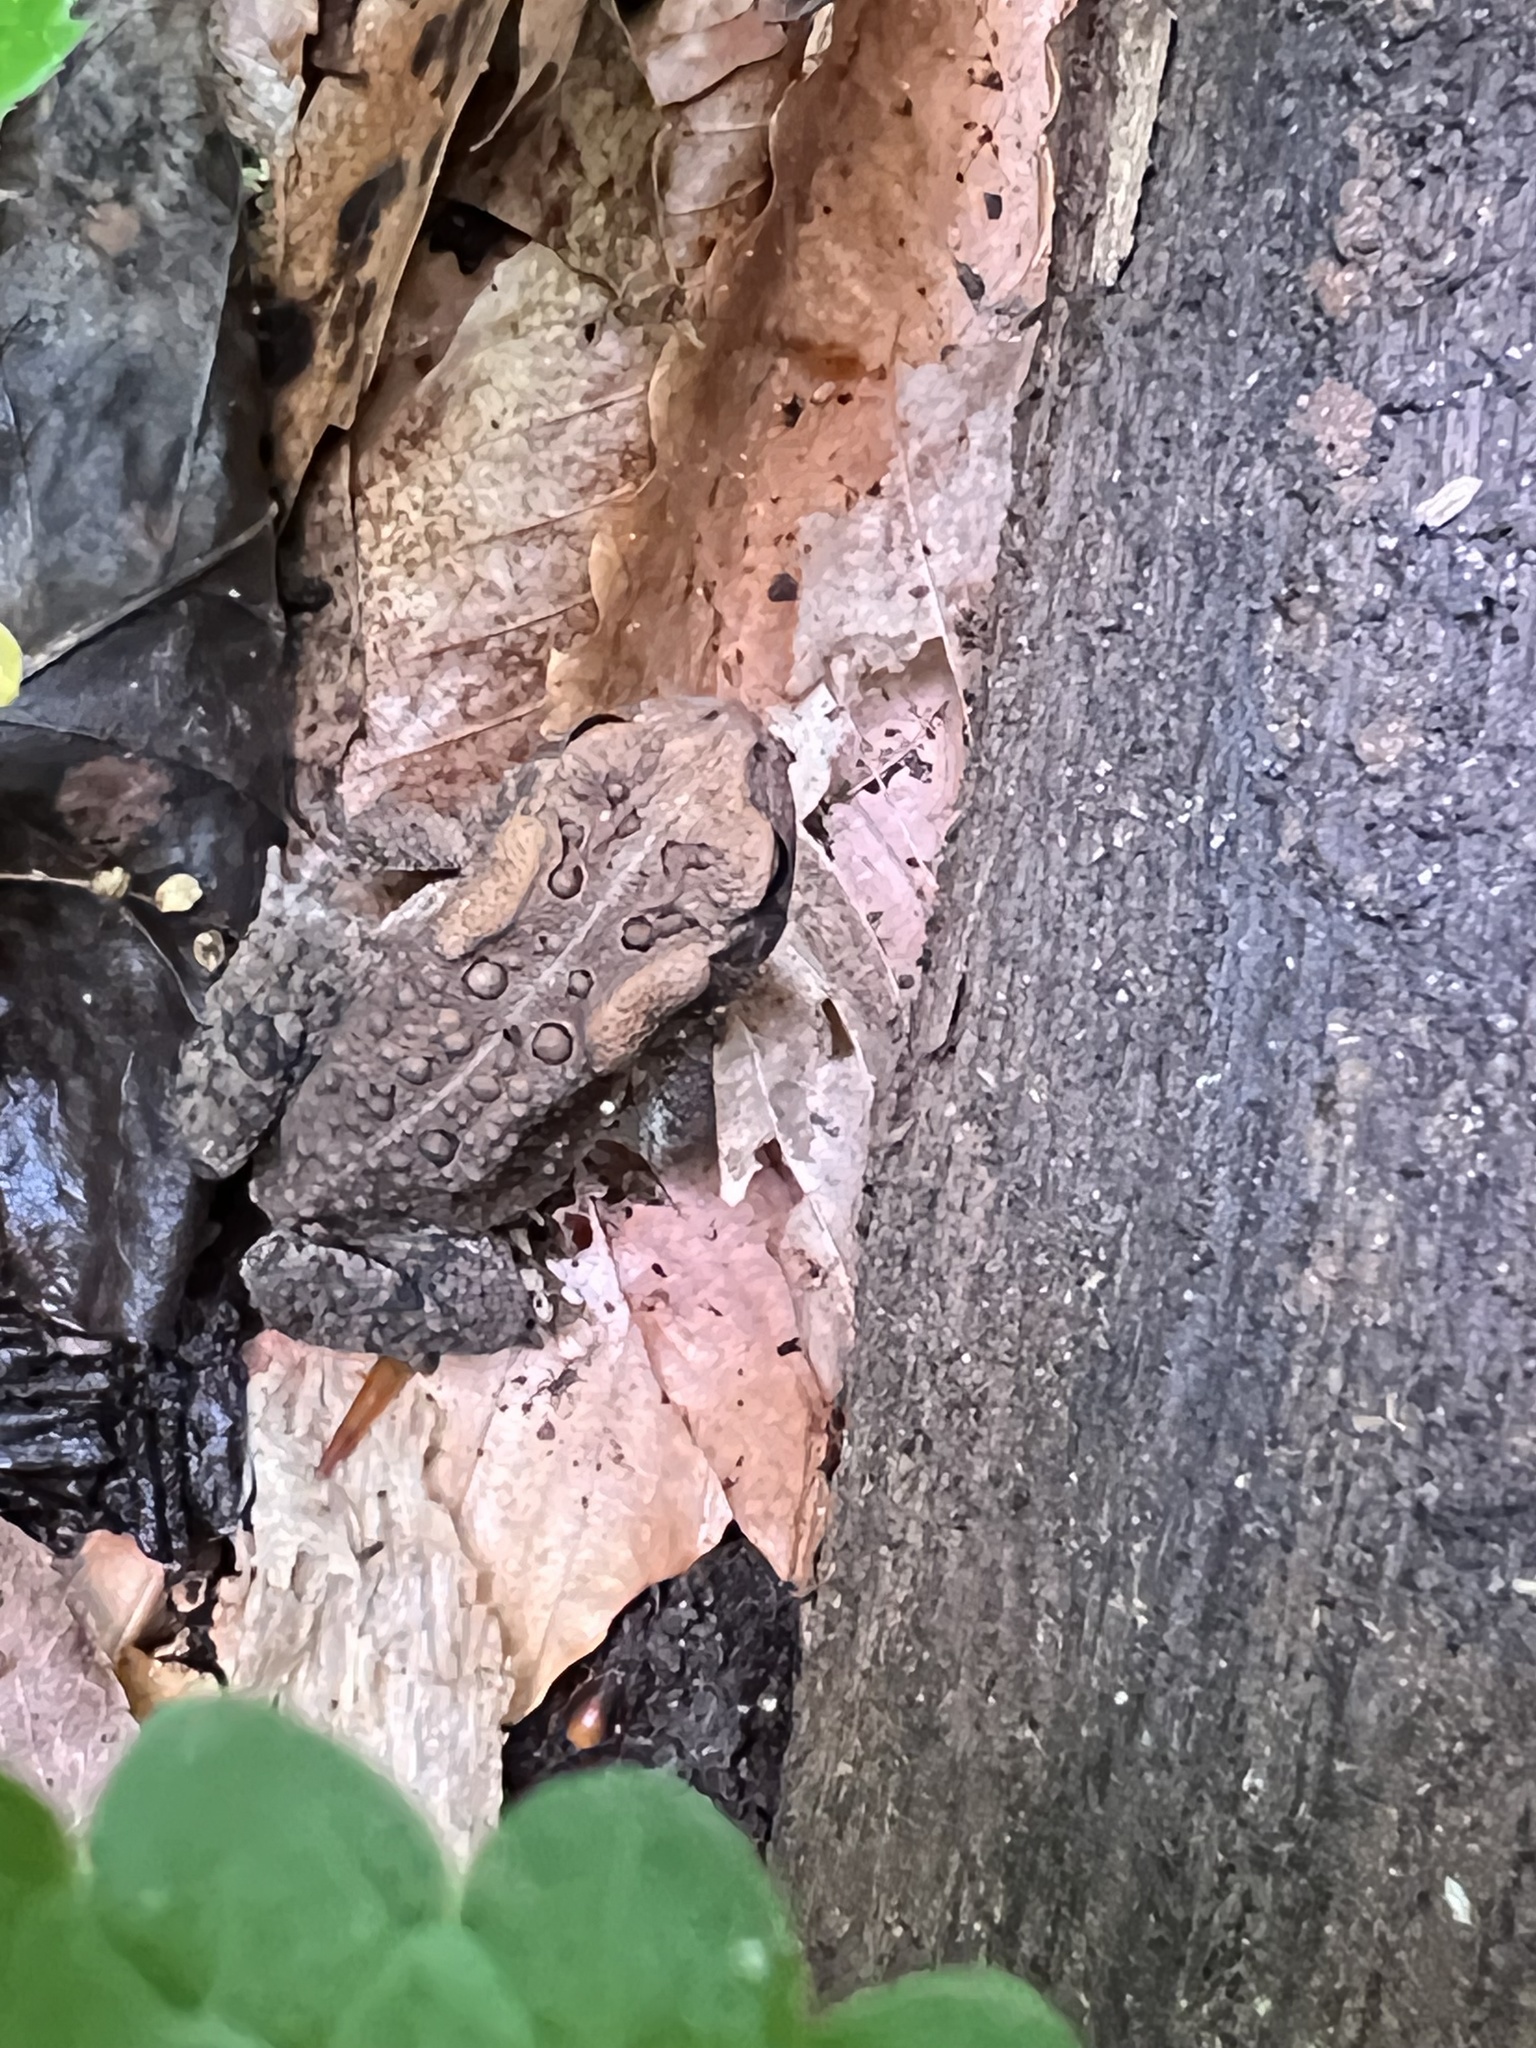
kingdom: Animalia
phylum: Chordata
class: Amphibia
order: Anura
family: Bufonidae
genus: Anaxyrus
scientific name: Anaxyrus americanus
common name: American toad
